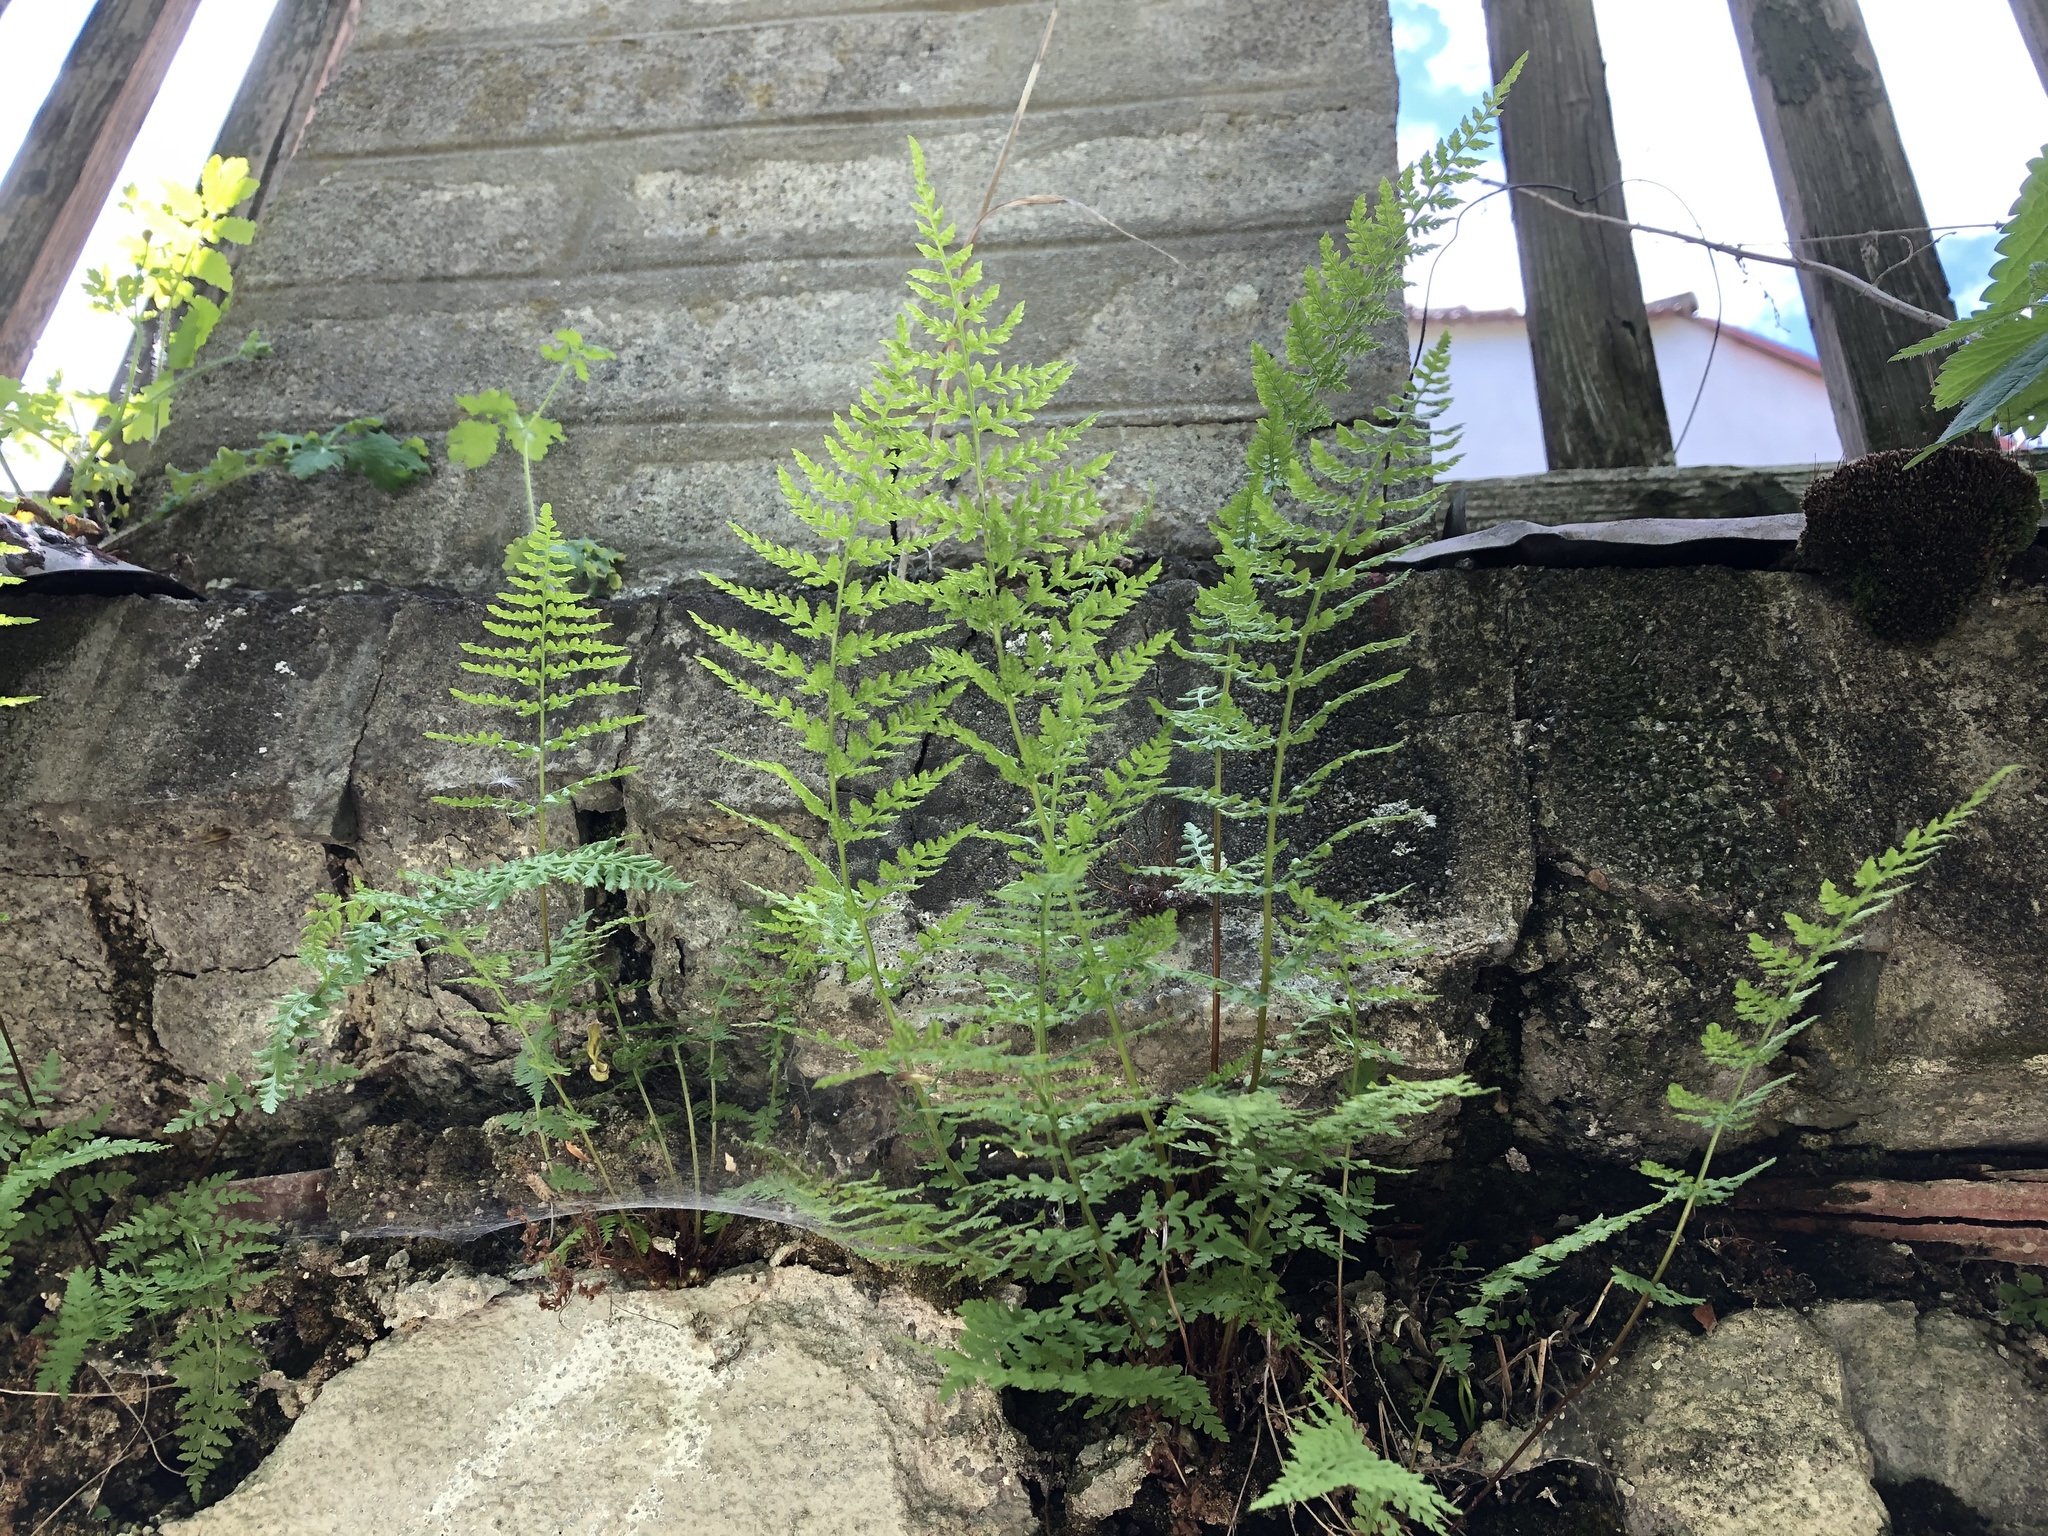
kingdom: Plantae
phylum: Tracheophyta
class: Polypodiopsida
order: Polypodiales
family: Cystopteridaceae
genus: Cystopteris
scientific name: Cystopteris fragilis
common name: Brittle bladder fern
